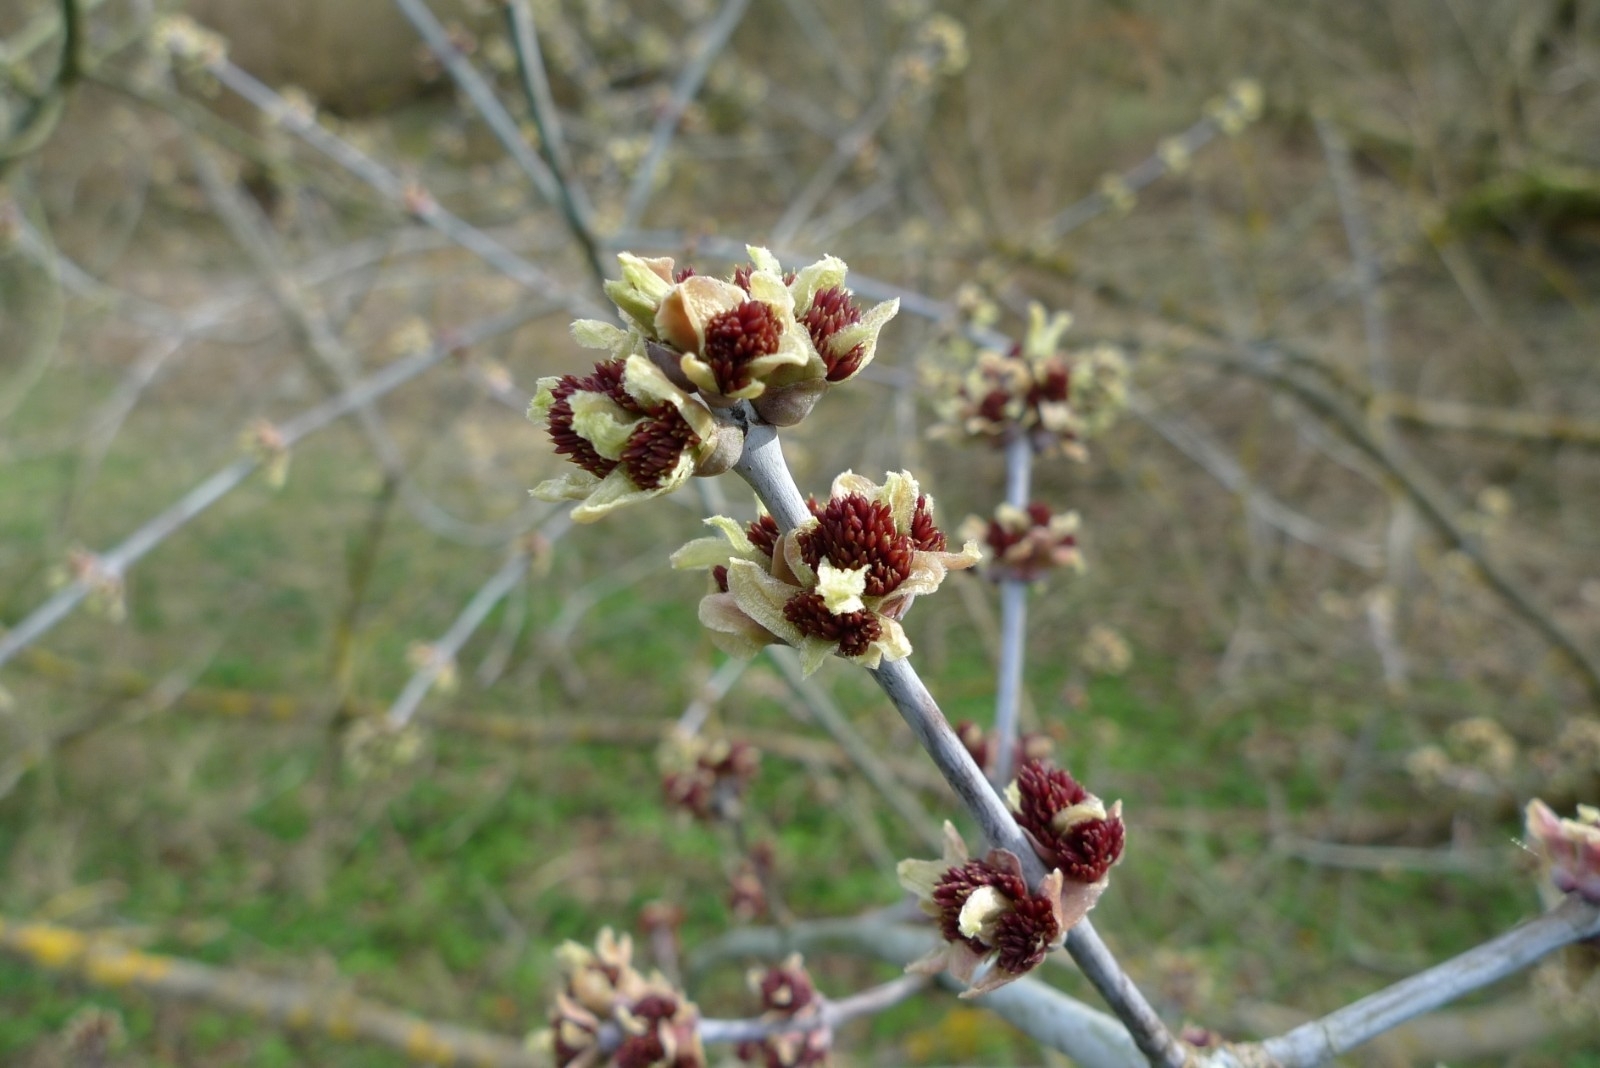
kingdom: Plantae
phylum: Tracheophyta
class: Magnoliopsida
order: Sapindales
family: Sapindaceae
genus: Acer
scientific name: Acer negundo
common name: Ashleaf maple
